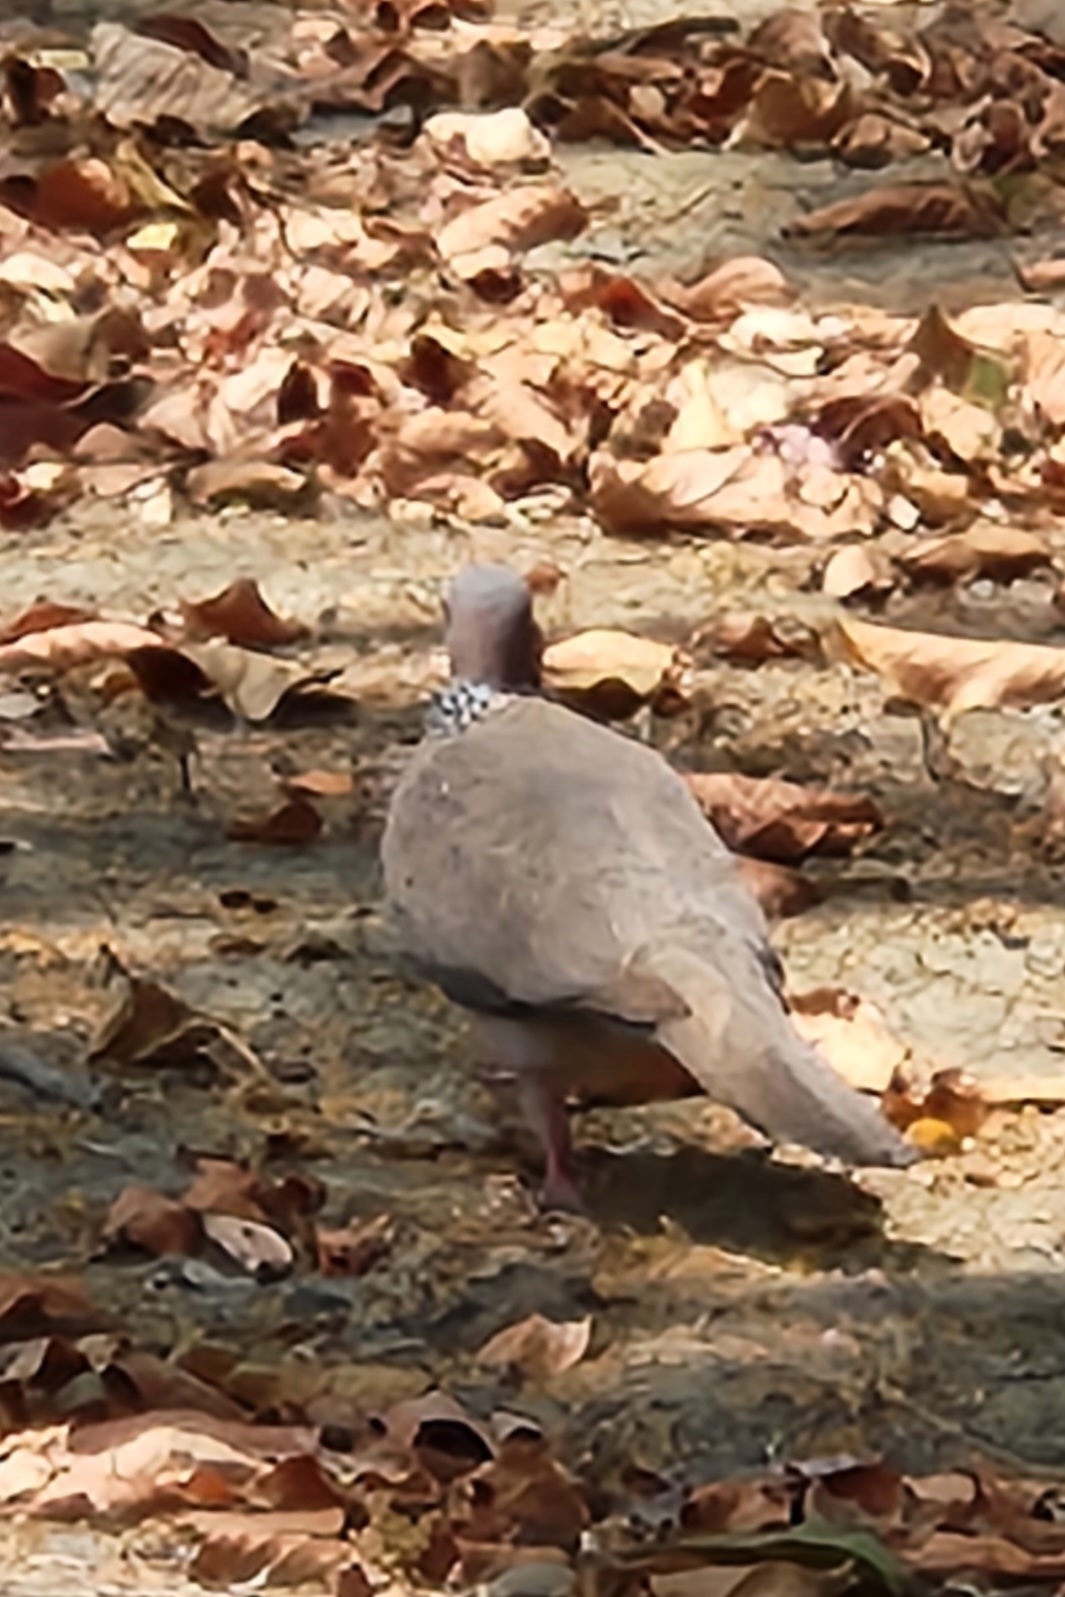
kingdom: Animalia
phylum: Chordata
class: Aves
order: Columbiformes
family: Columbidae
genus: Spilopelia
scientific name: Spilopelia chinensis
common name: Spotted dove
